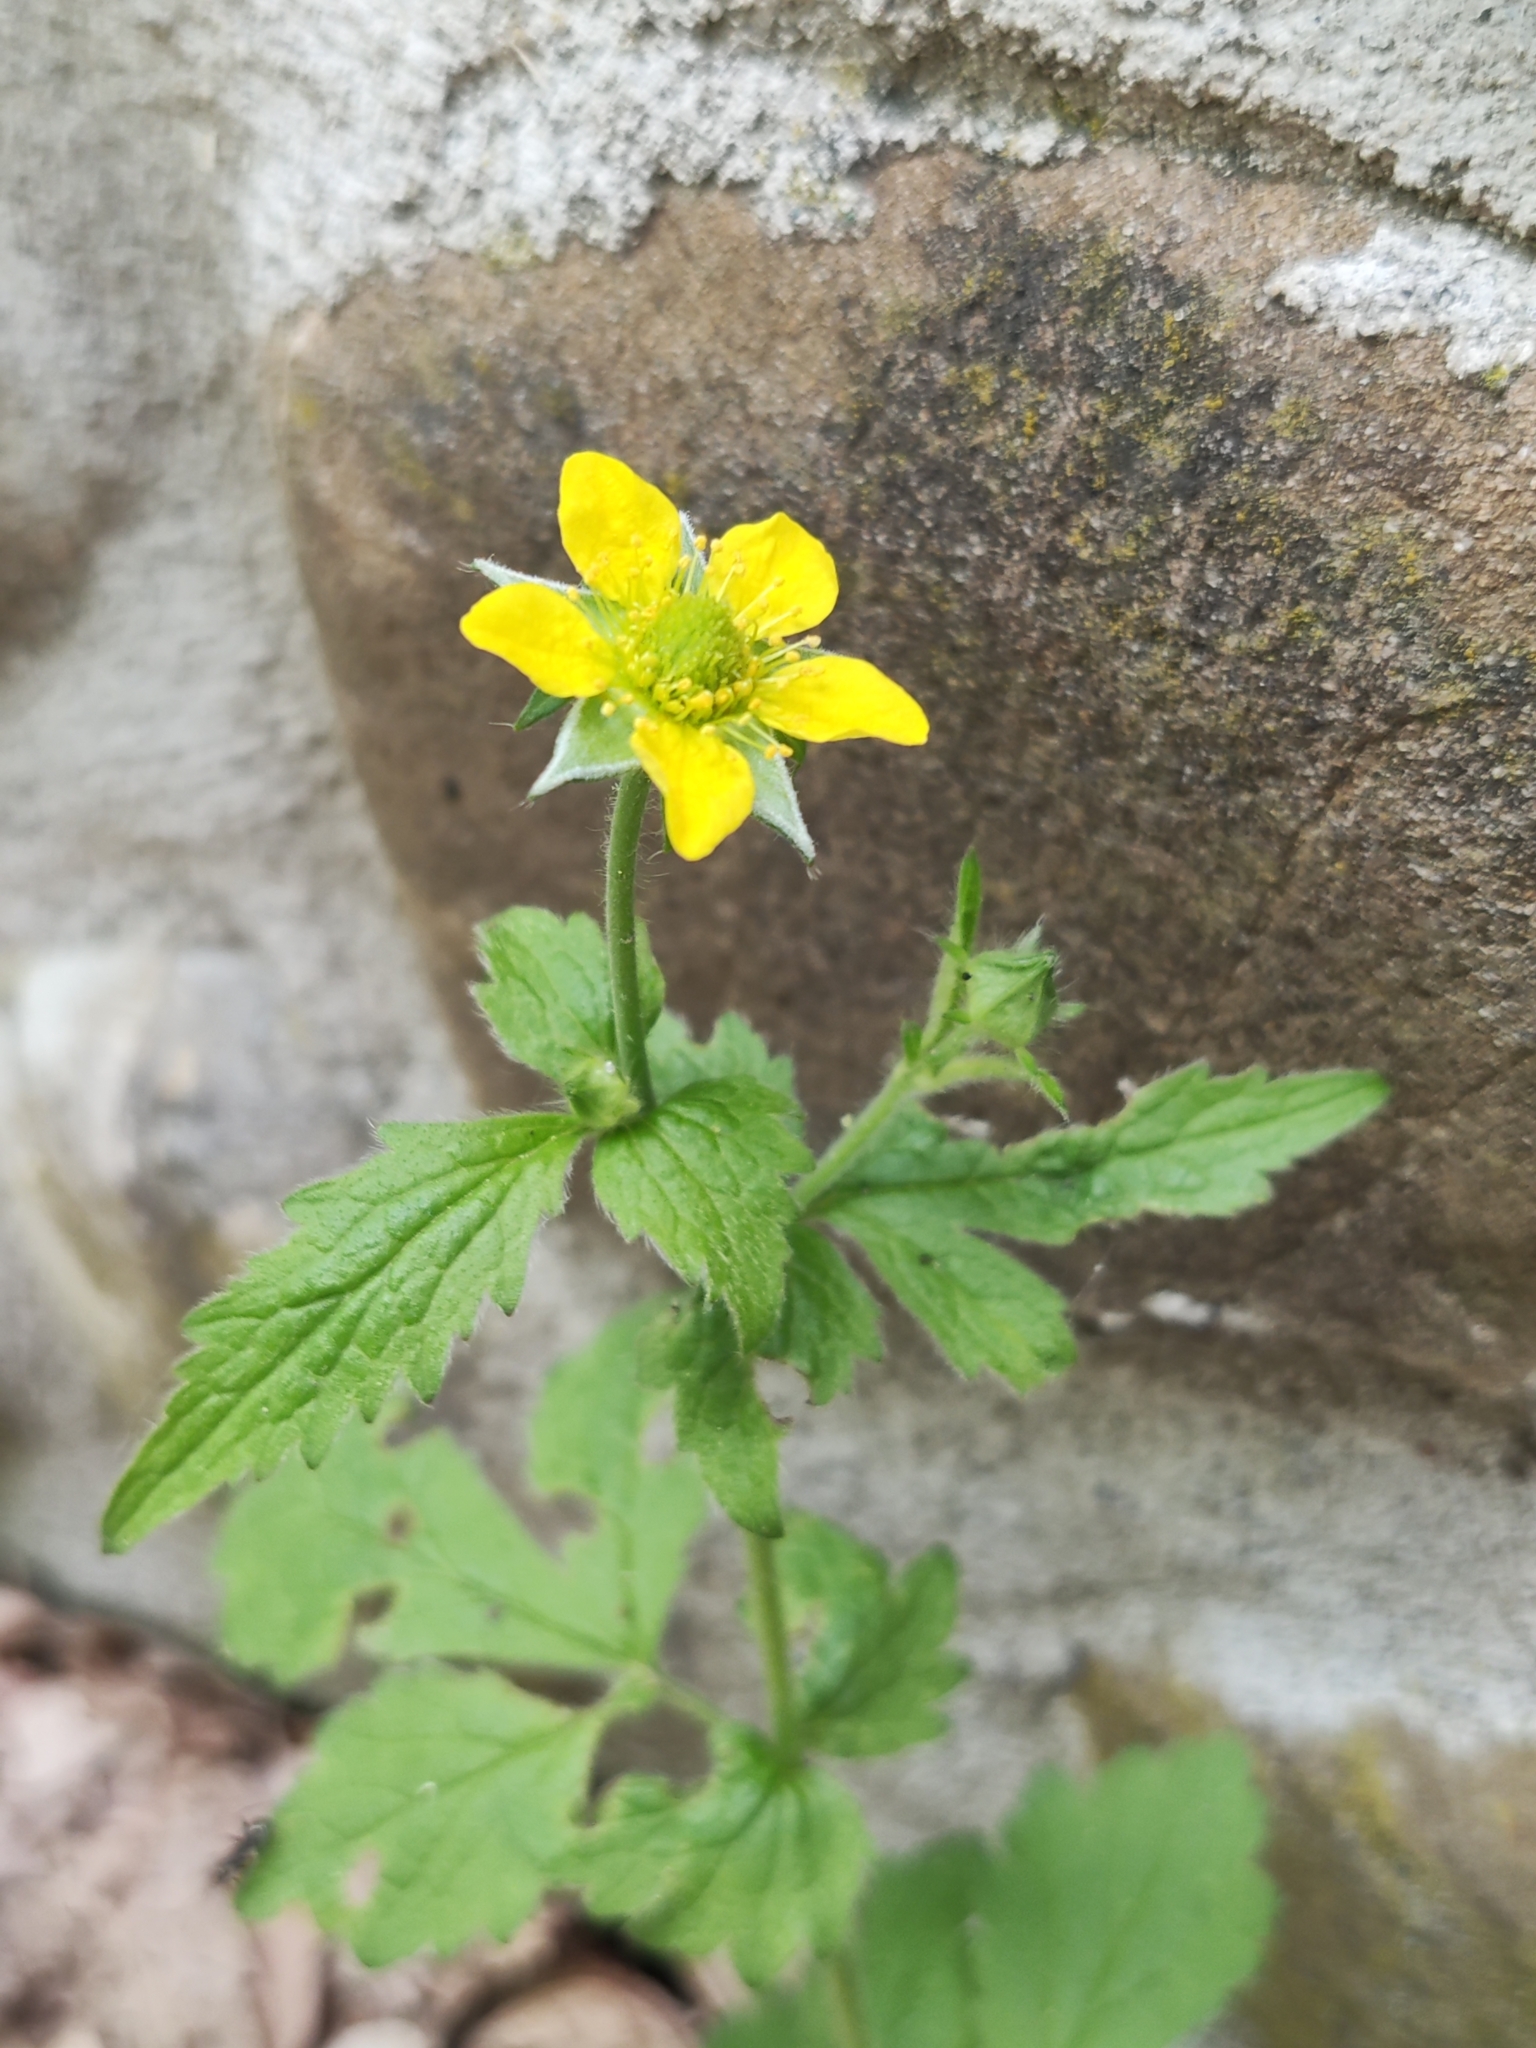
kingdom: Plantae
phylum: Tracheophyta
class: Magnoliopsida
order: Rosales
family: Rosaceae
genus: Geum
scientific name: Geum urbanum
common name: Wood avens
